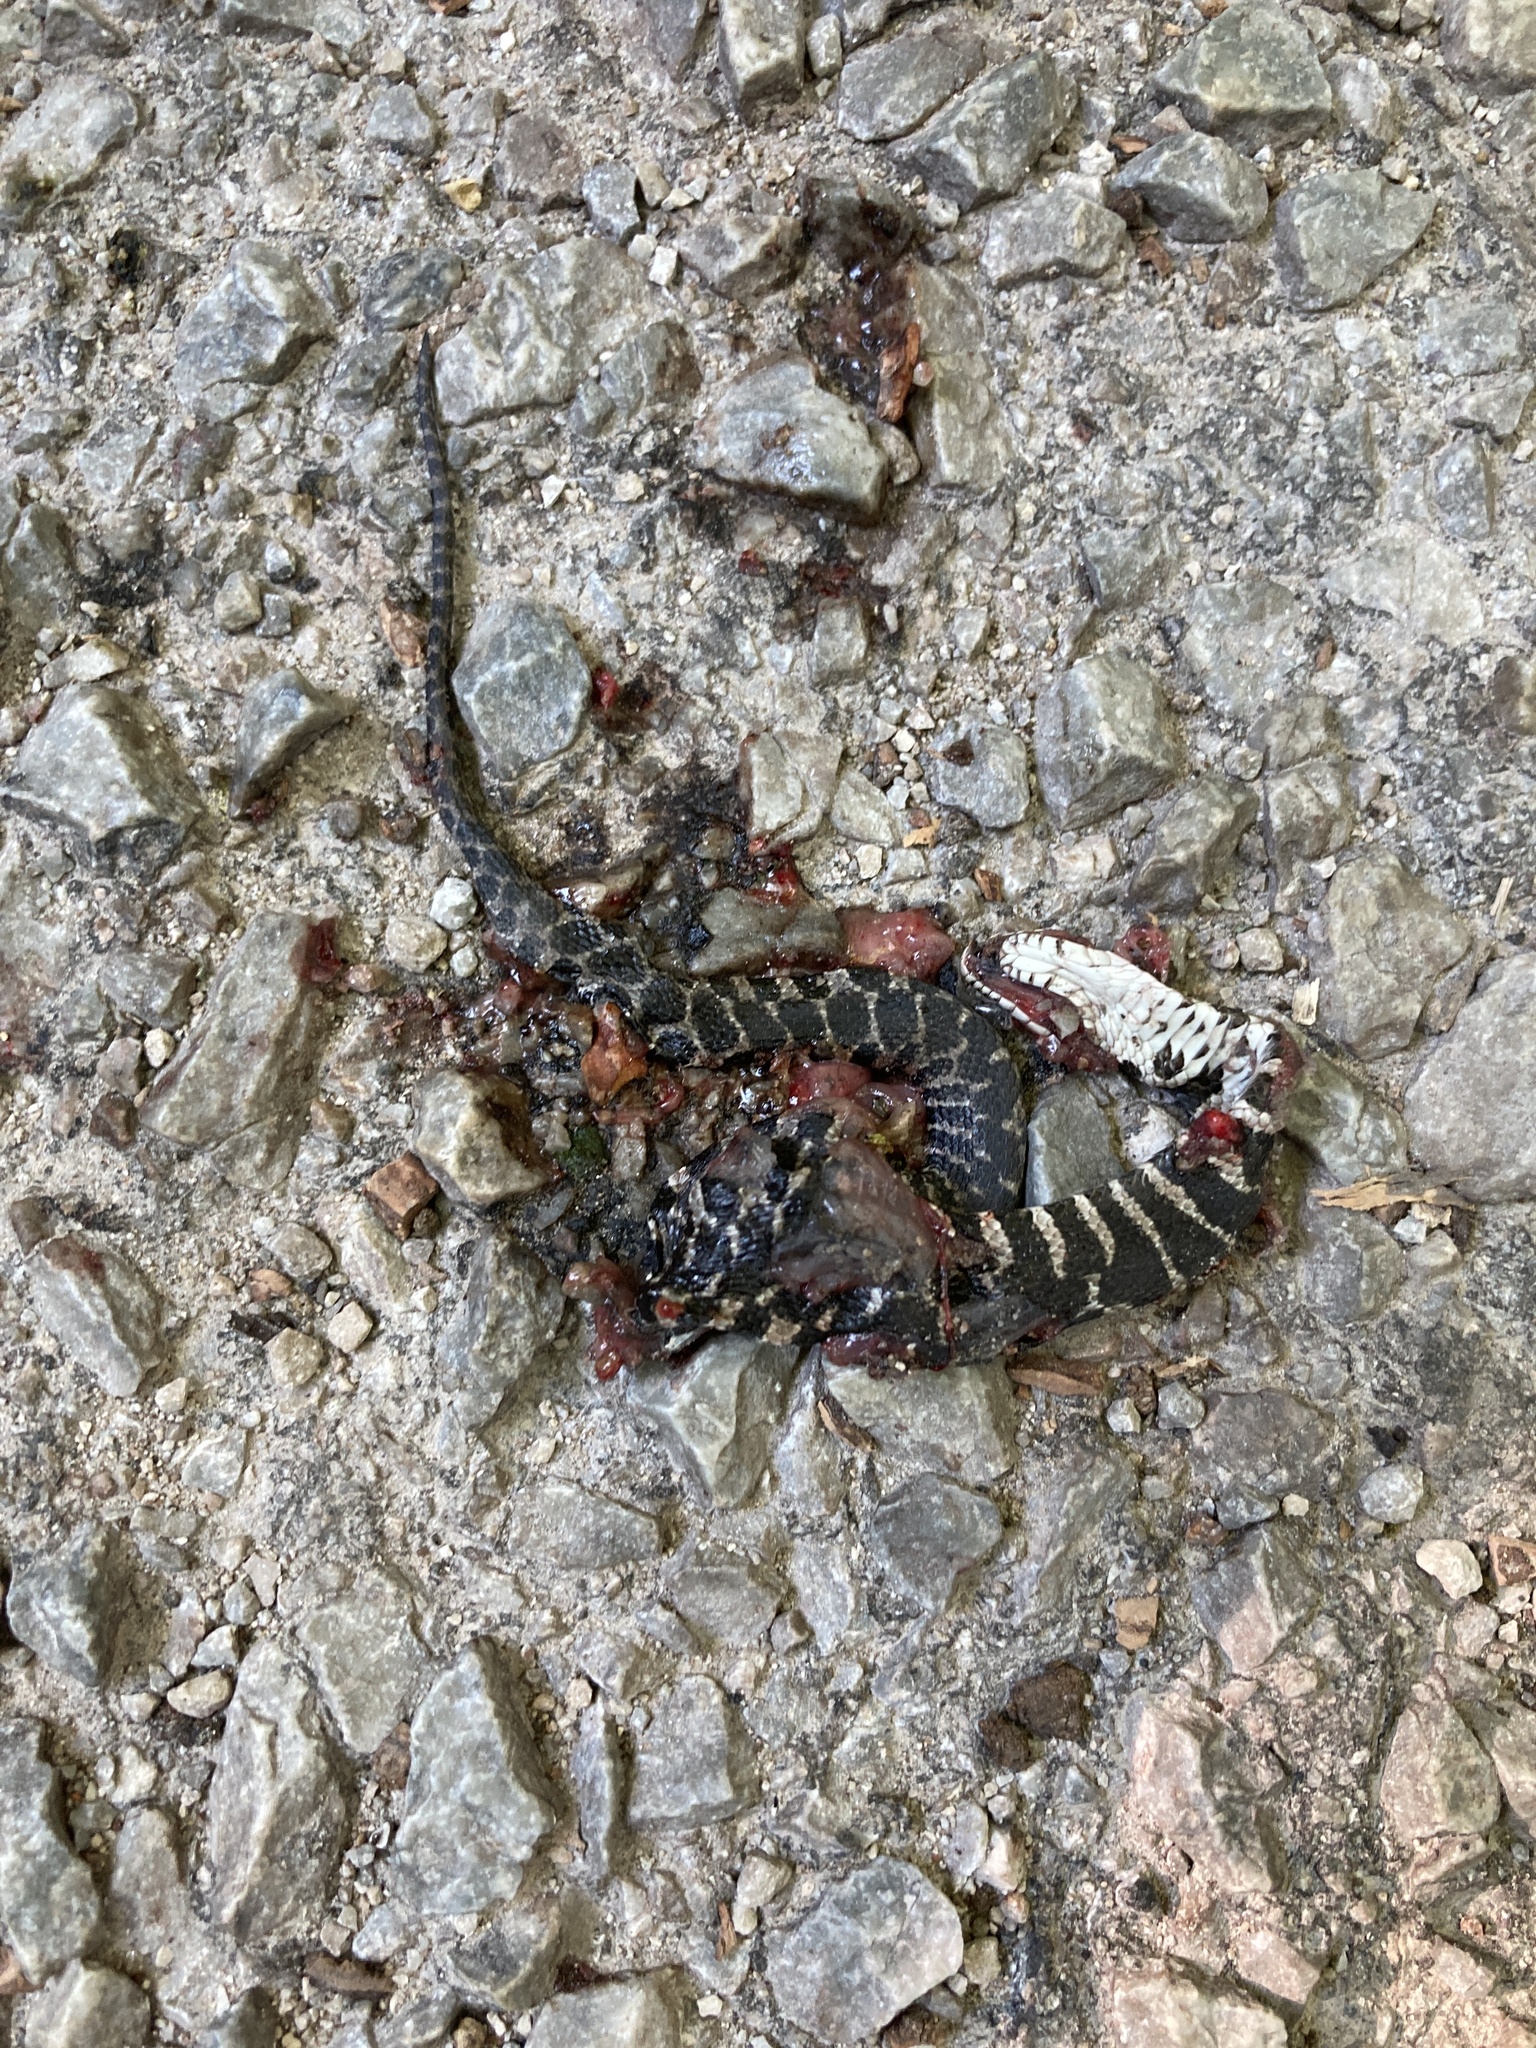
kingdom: Animalia
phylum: Chordata
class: Squamata
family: Colubridae
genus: Nerodia
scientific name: Nerodia sipedon
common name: Northern water snake
